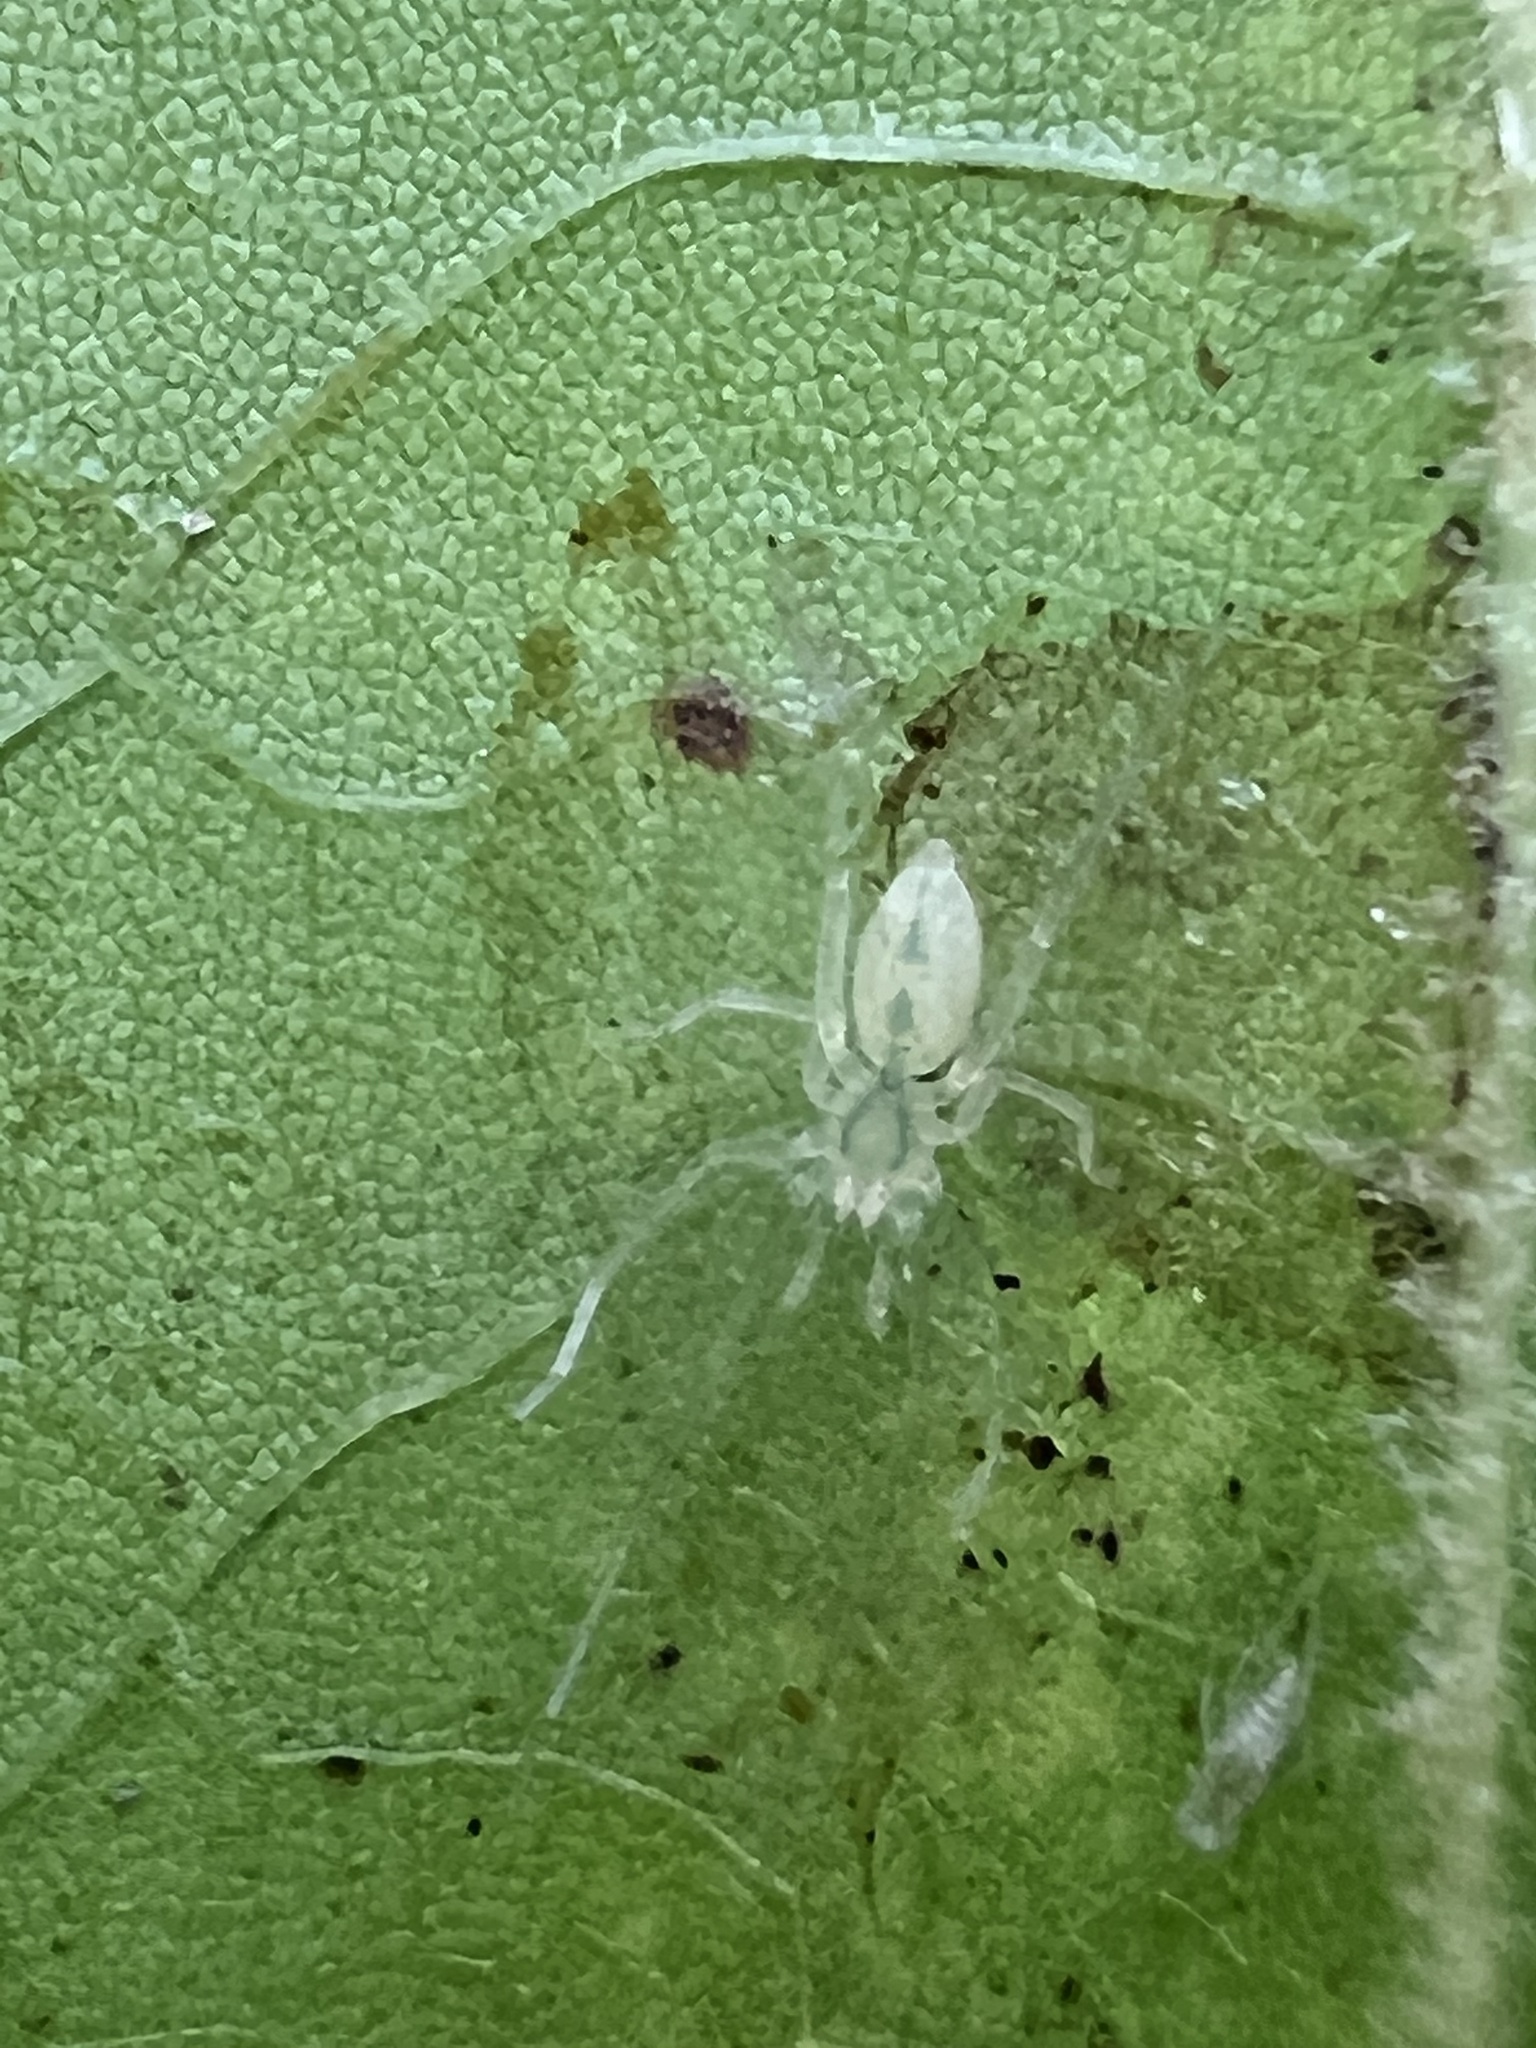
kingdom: Animalia
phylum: Arthropoda
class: Arachnida
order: Araneae
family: Anyphaenidae
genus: Wulfila
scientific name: Wulfila albens
